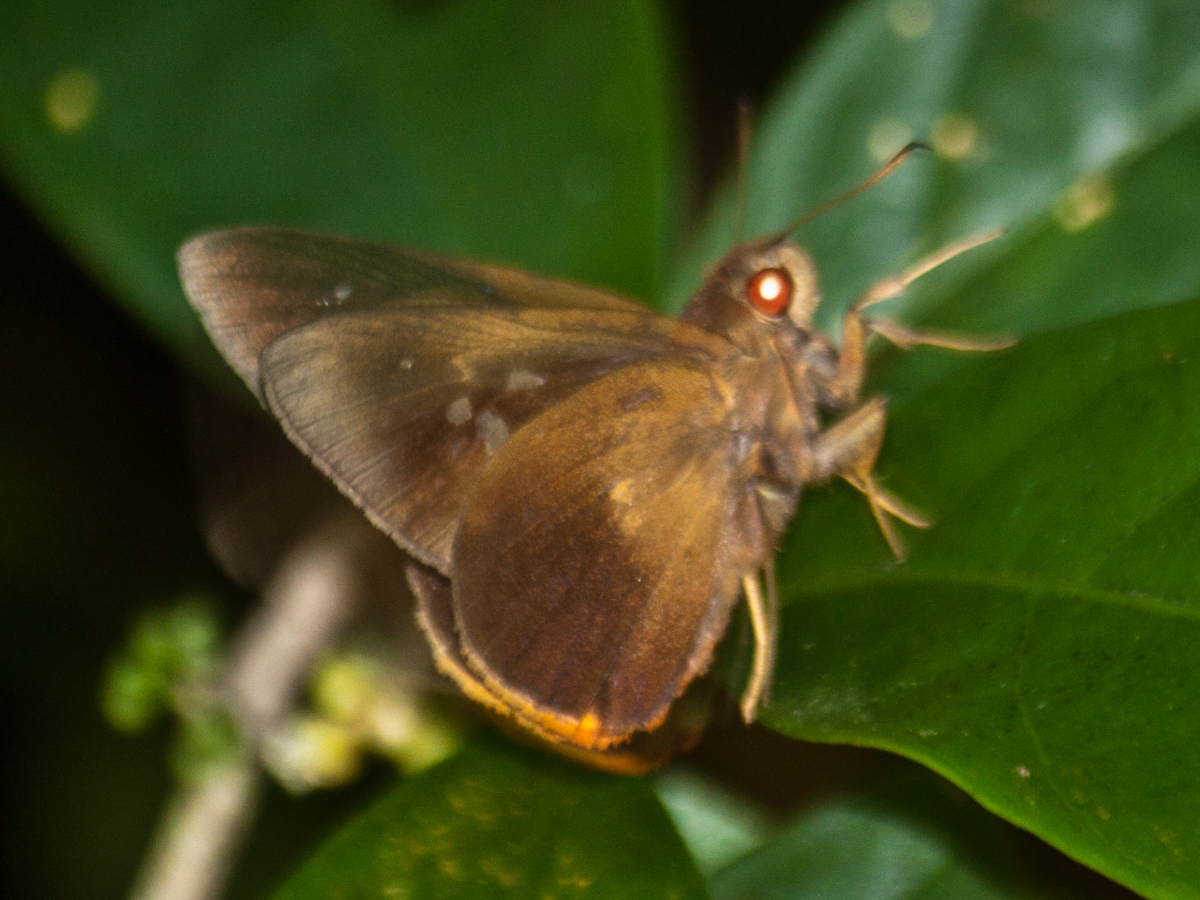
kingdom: Animalia
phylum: Arthropoda
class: Insecta
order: Lepidoptera
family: Hesperiidae
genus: Zela
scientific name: Zela zeus
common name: Orange-ciliate palmer
